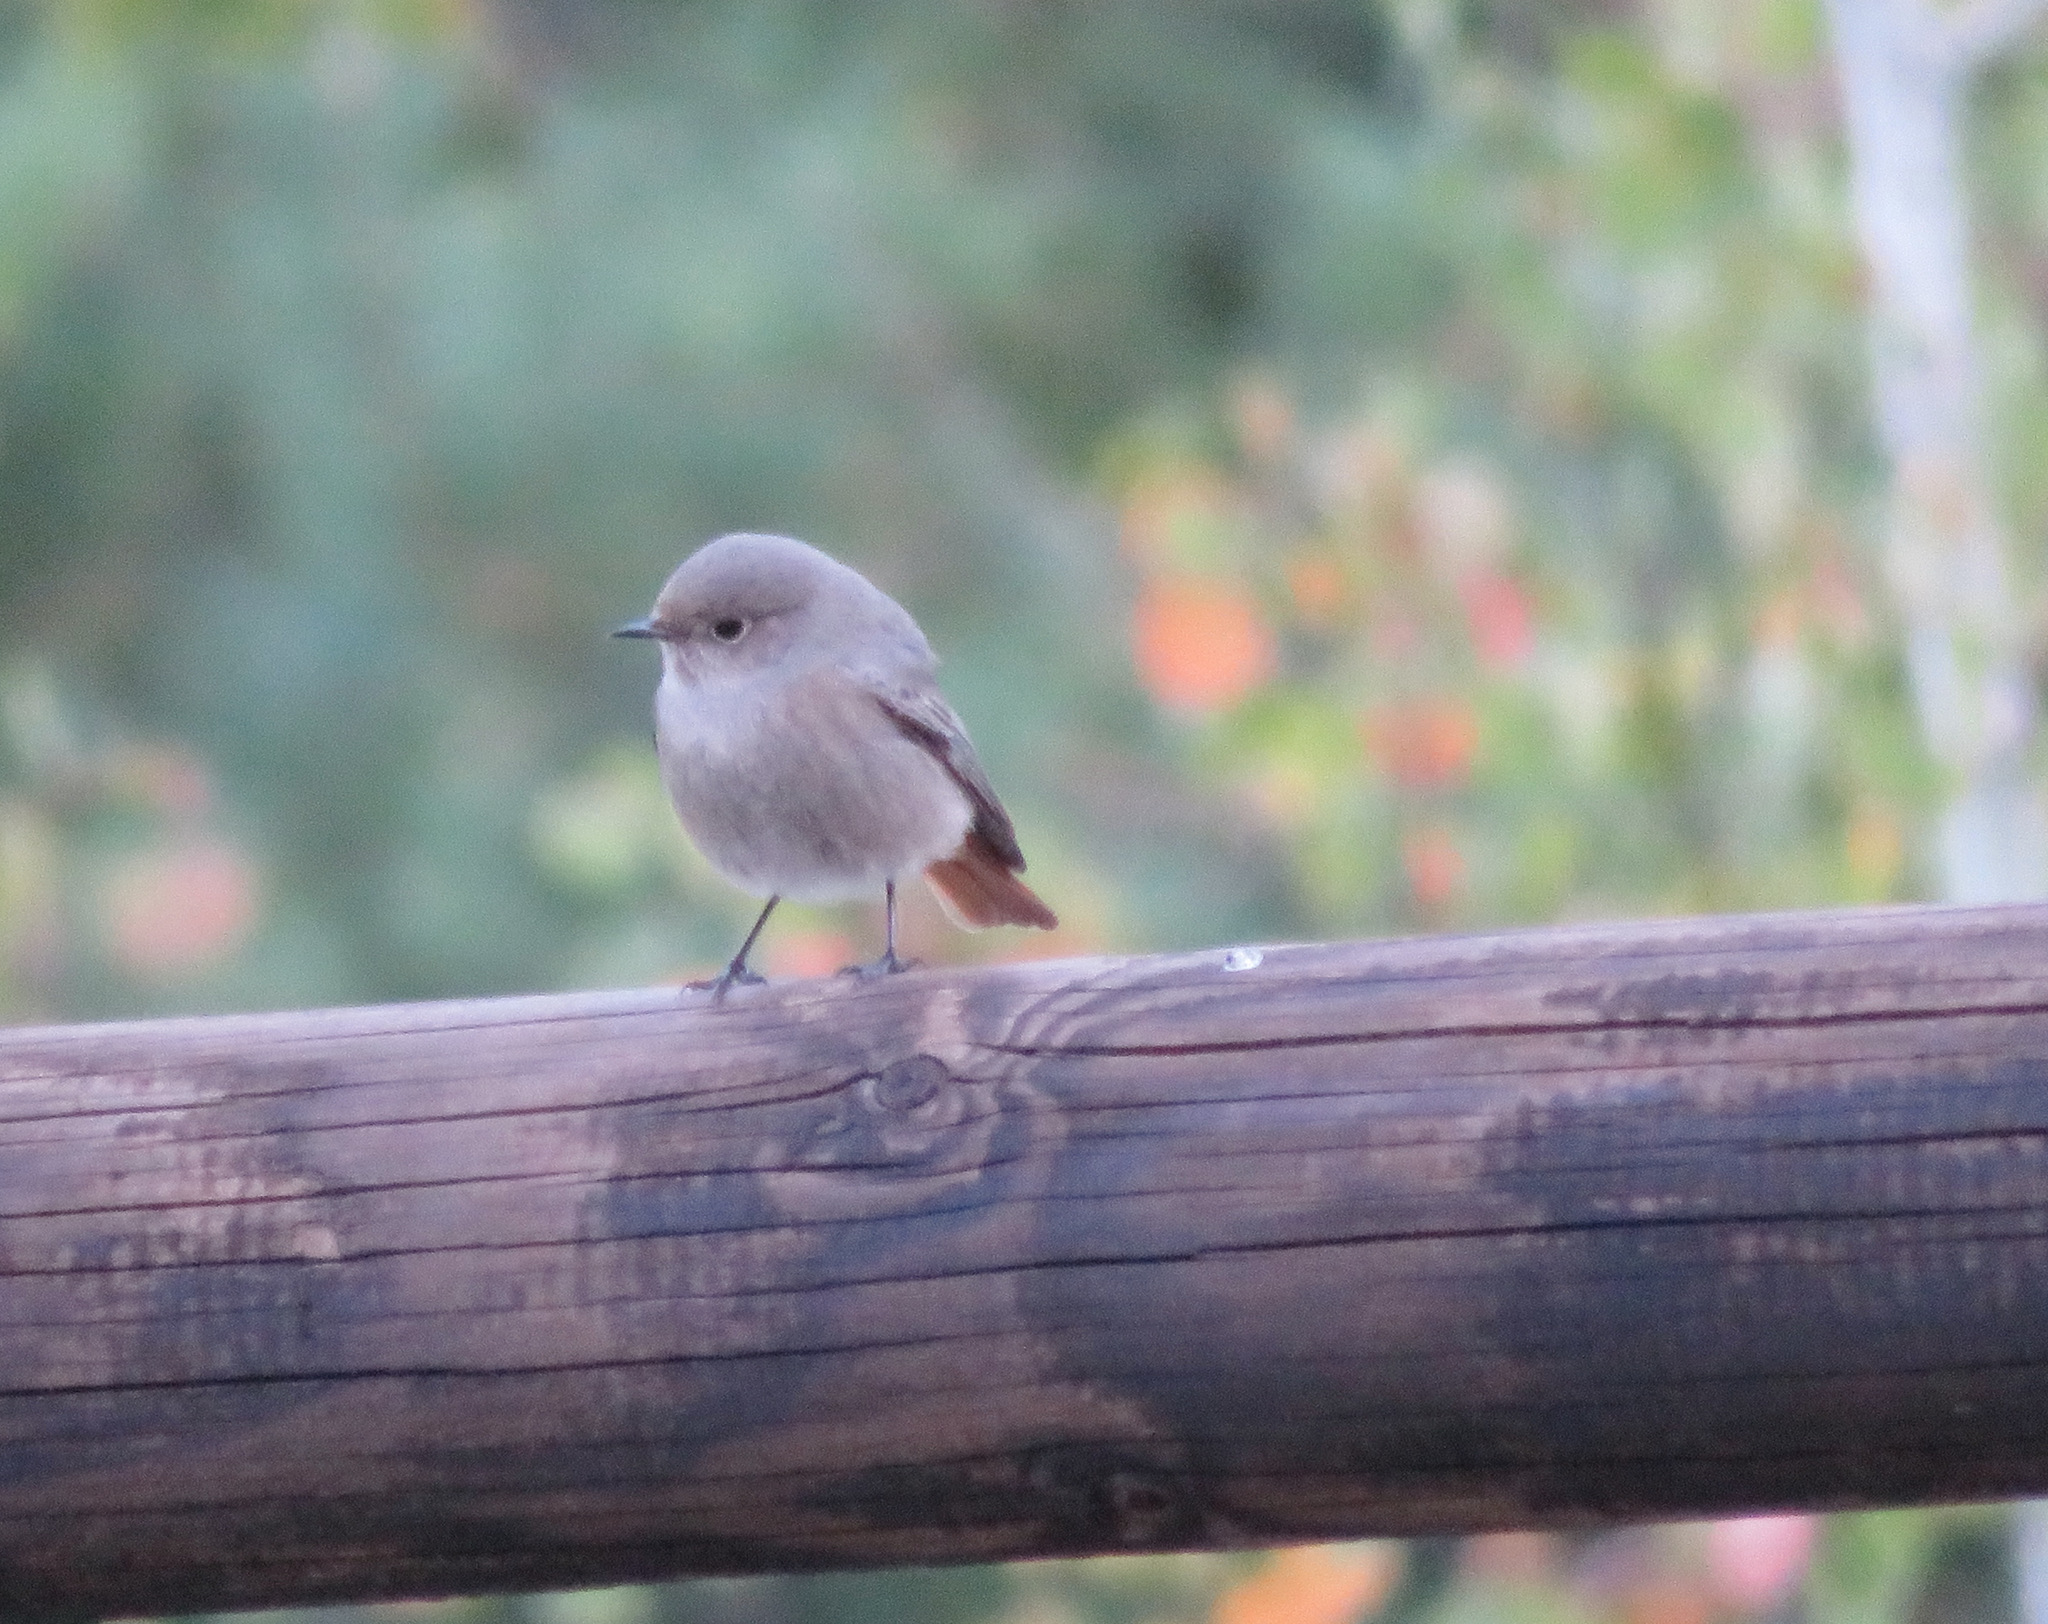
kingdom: Animalia
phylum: Chordata
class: Aves
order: Passeriformes
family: Muscicapidae
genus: Phoenicurus
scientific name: Phoenicurus ochruros
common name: Black redstart
